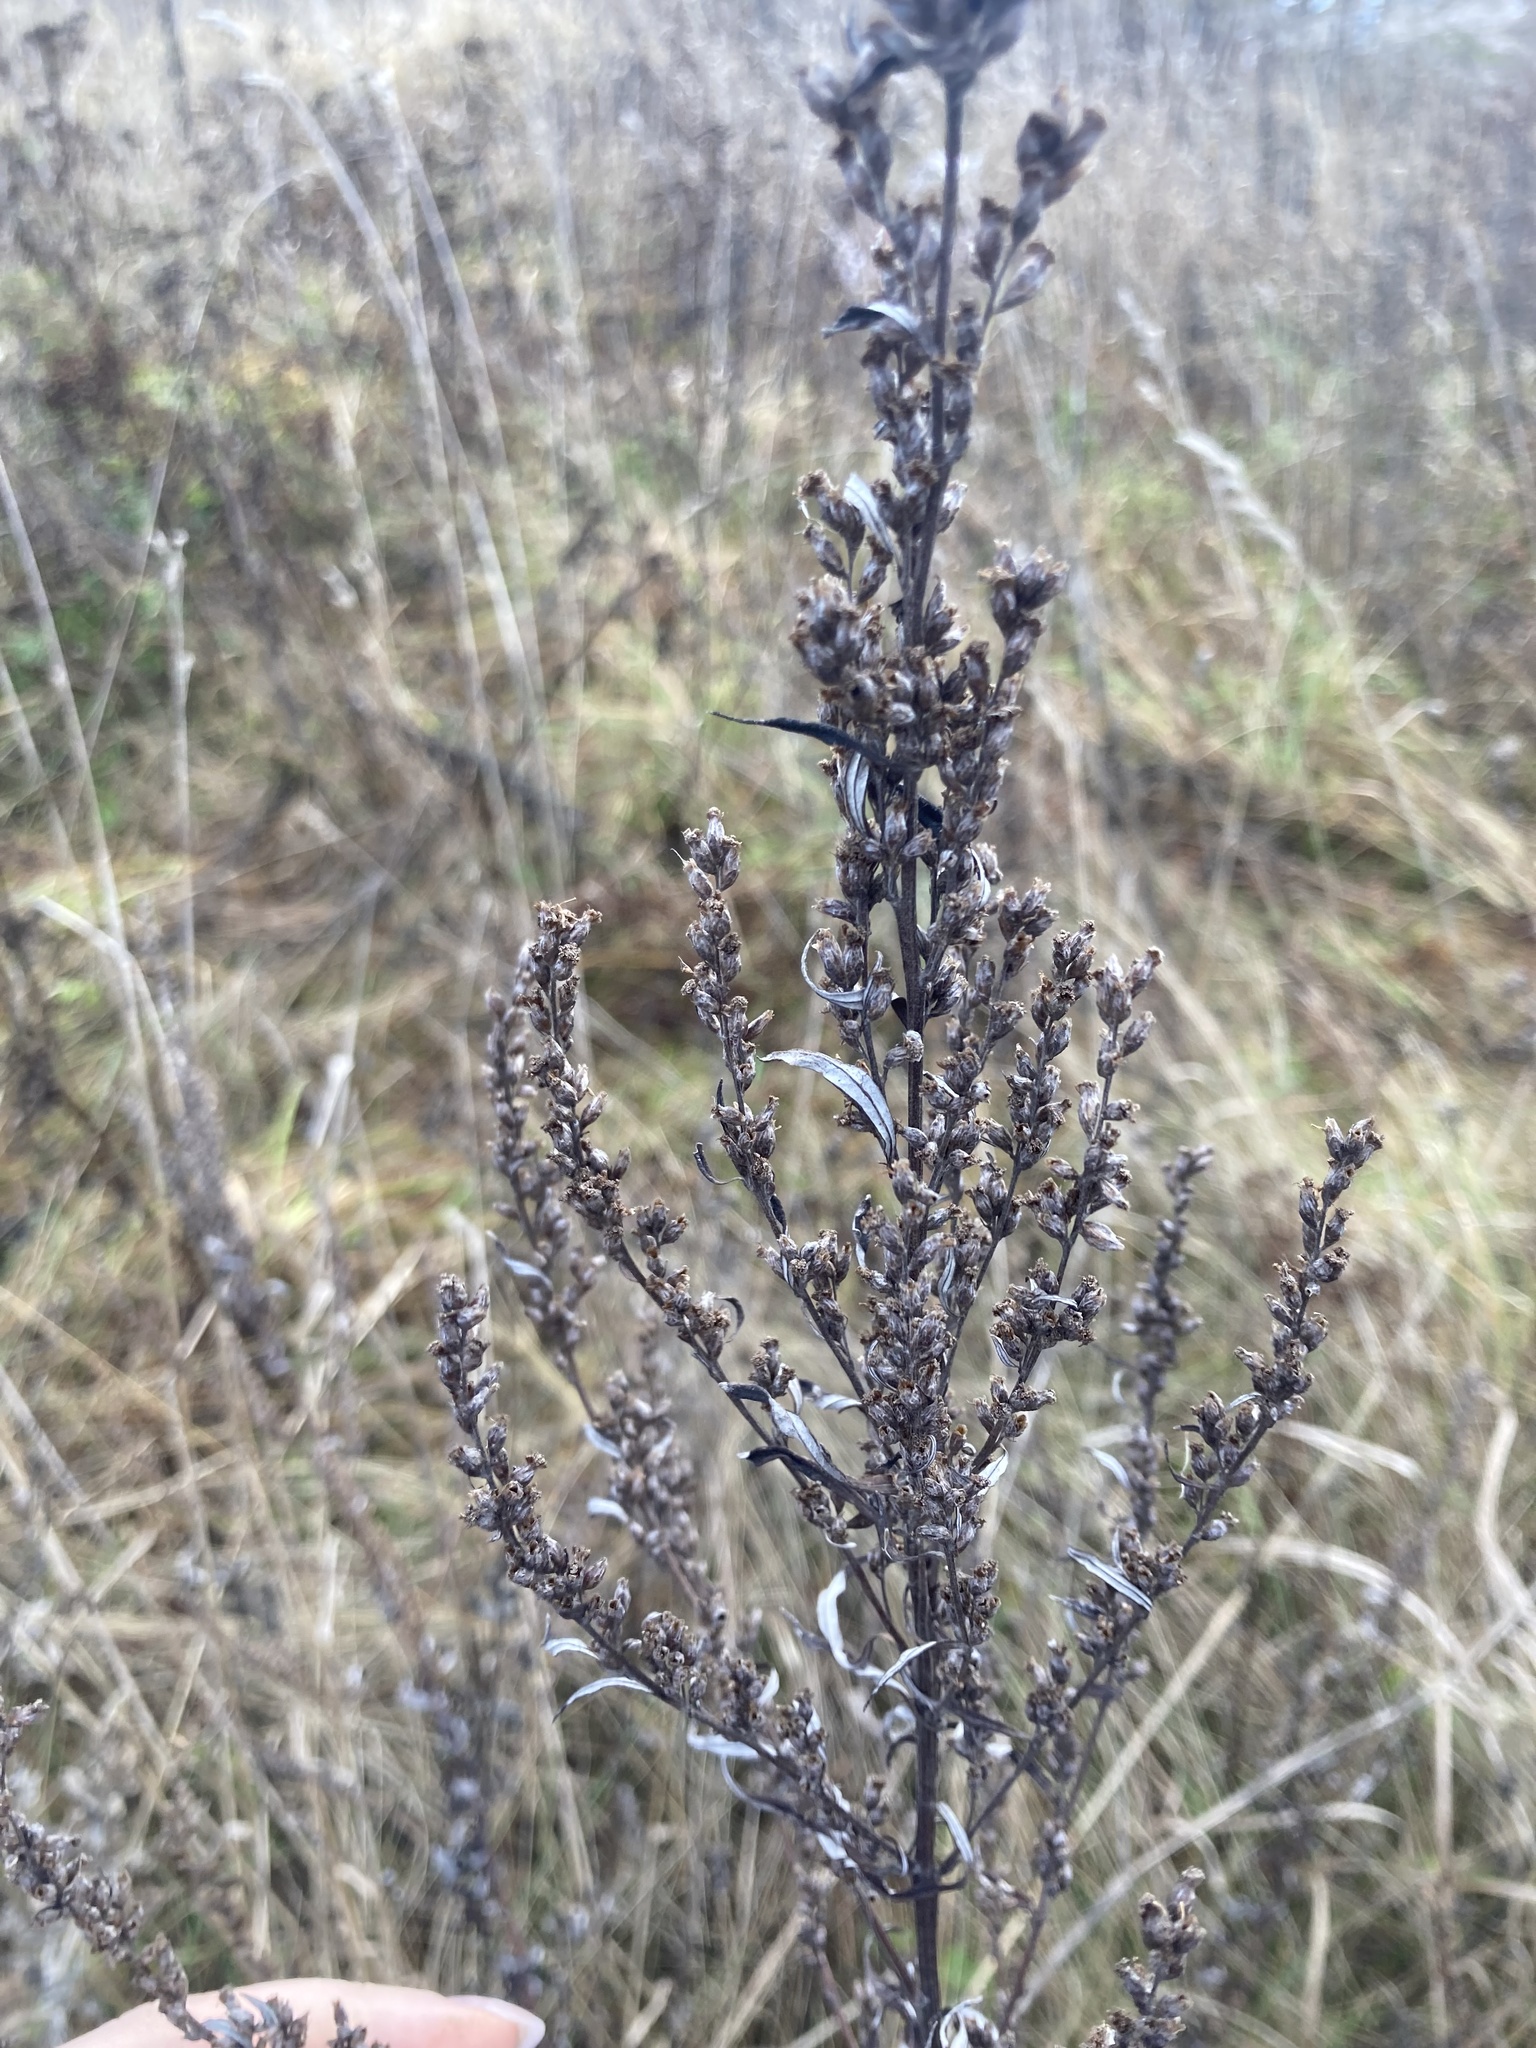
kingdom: Plantae
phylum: Tracheophyta
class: Magnoliopsida
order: Asterales
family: Asteraceae
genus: Artemisia
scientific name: Artemisia vulgaris
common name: Mugwort
